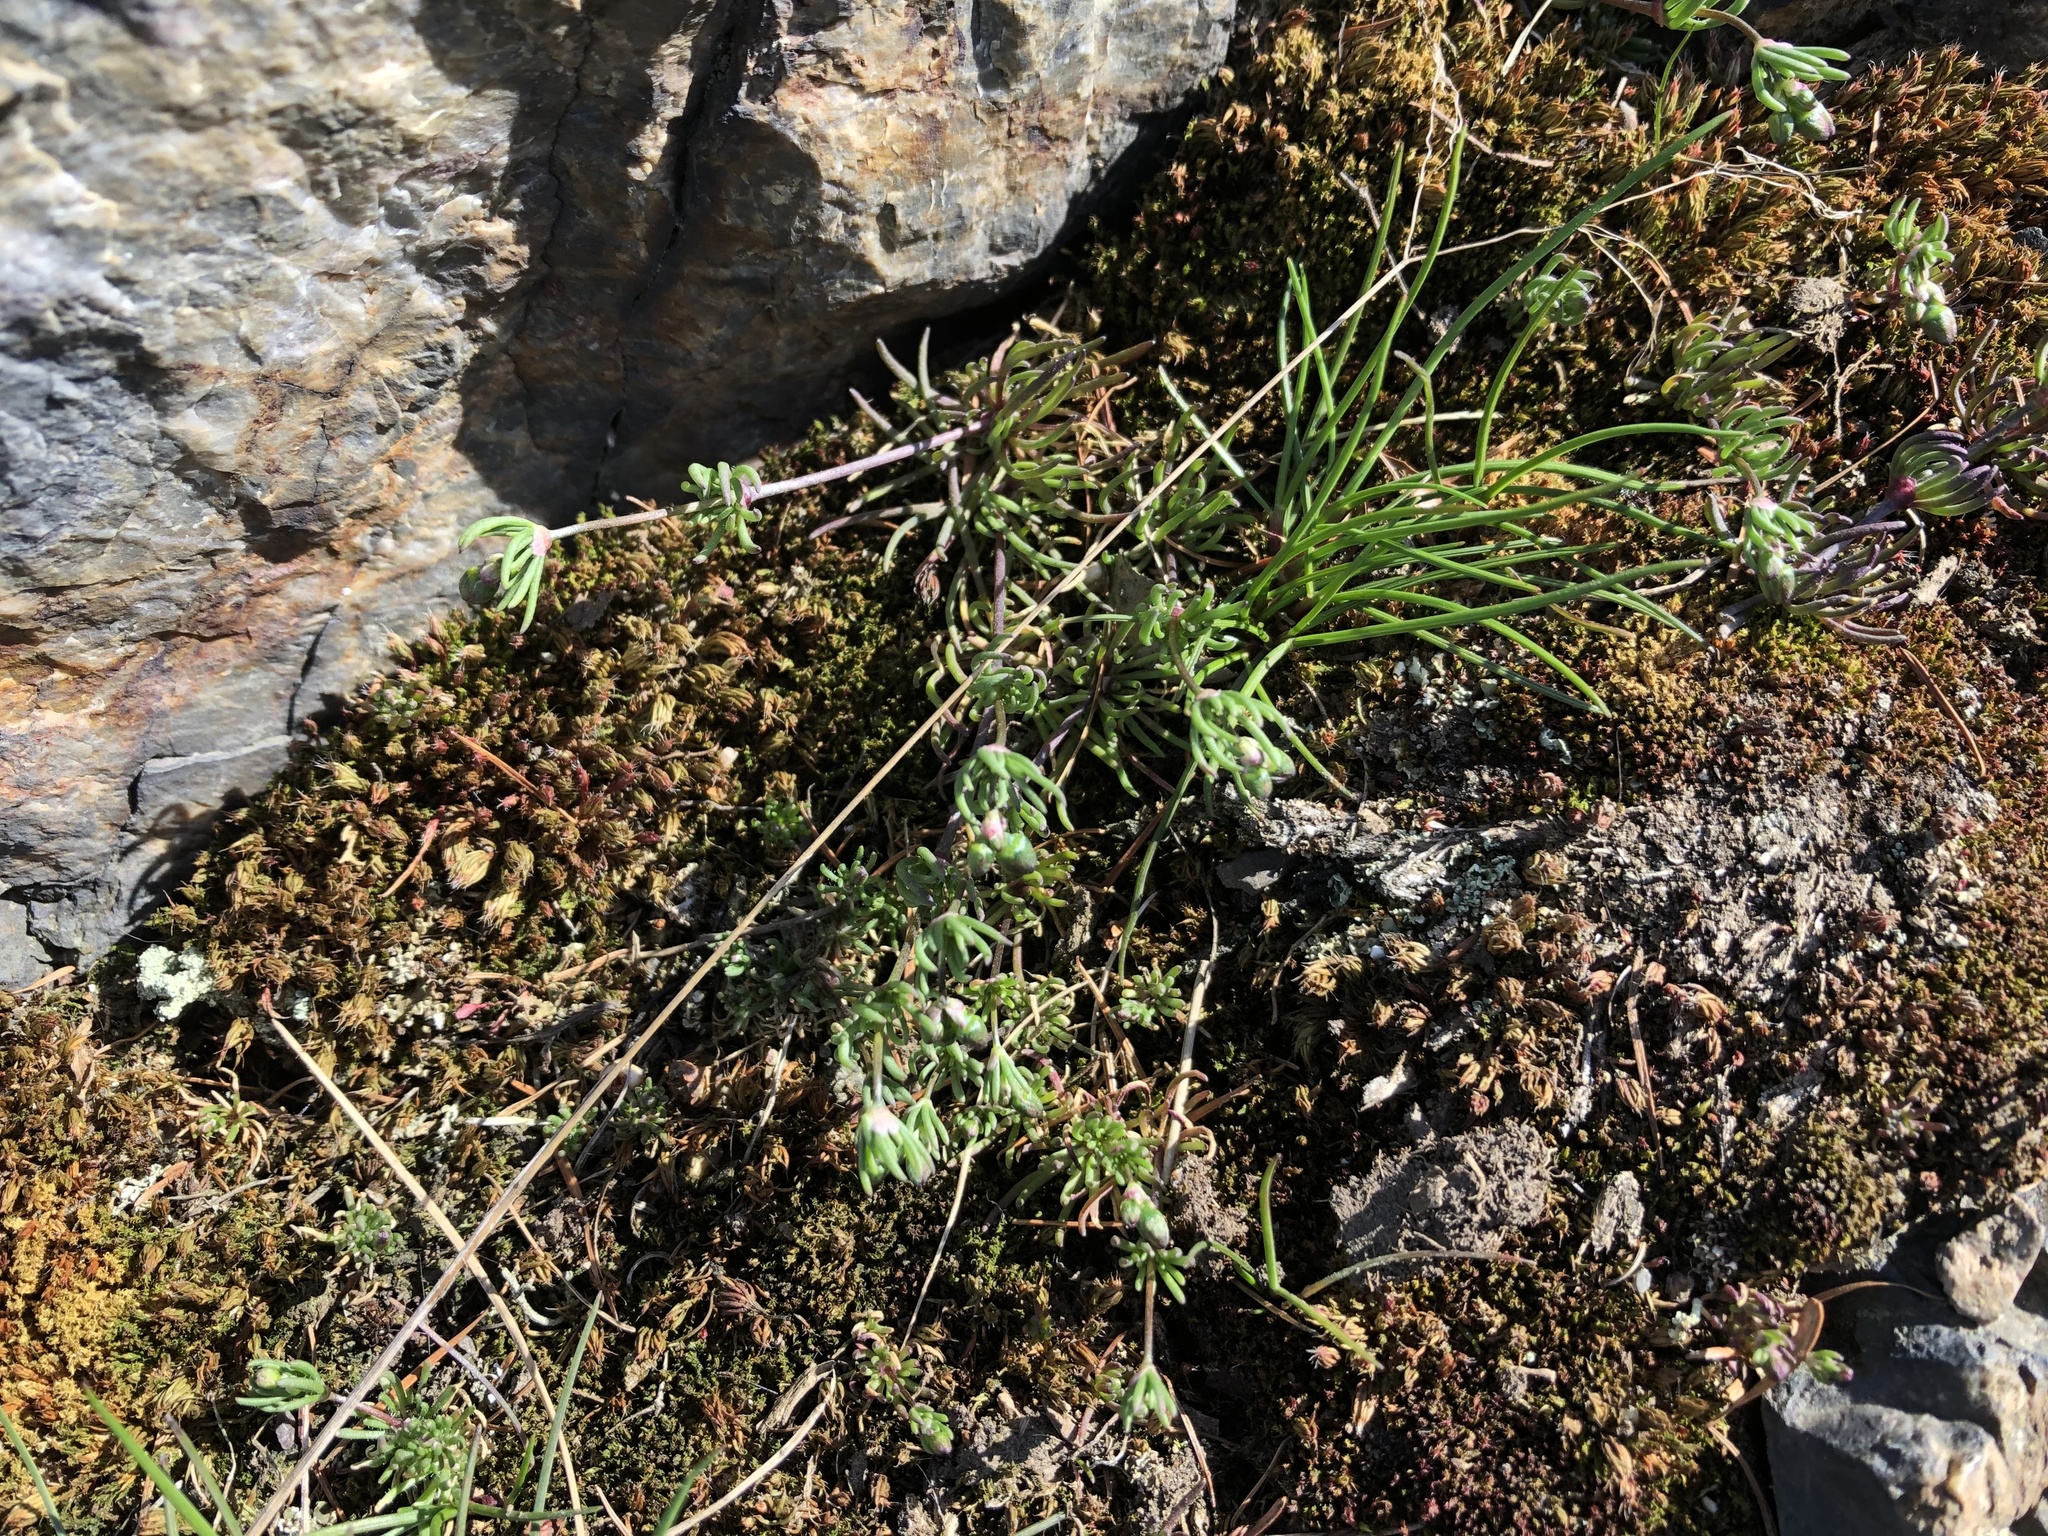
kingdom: Plantae
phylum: Tracheophyta
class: Magnoliopsida
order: Caryophyllales
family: Caryophyllaceae
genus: Spergula
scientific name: Spergula morisonii
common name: Pearlwort spurrey
